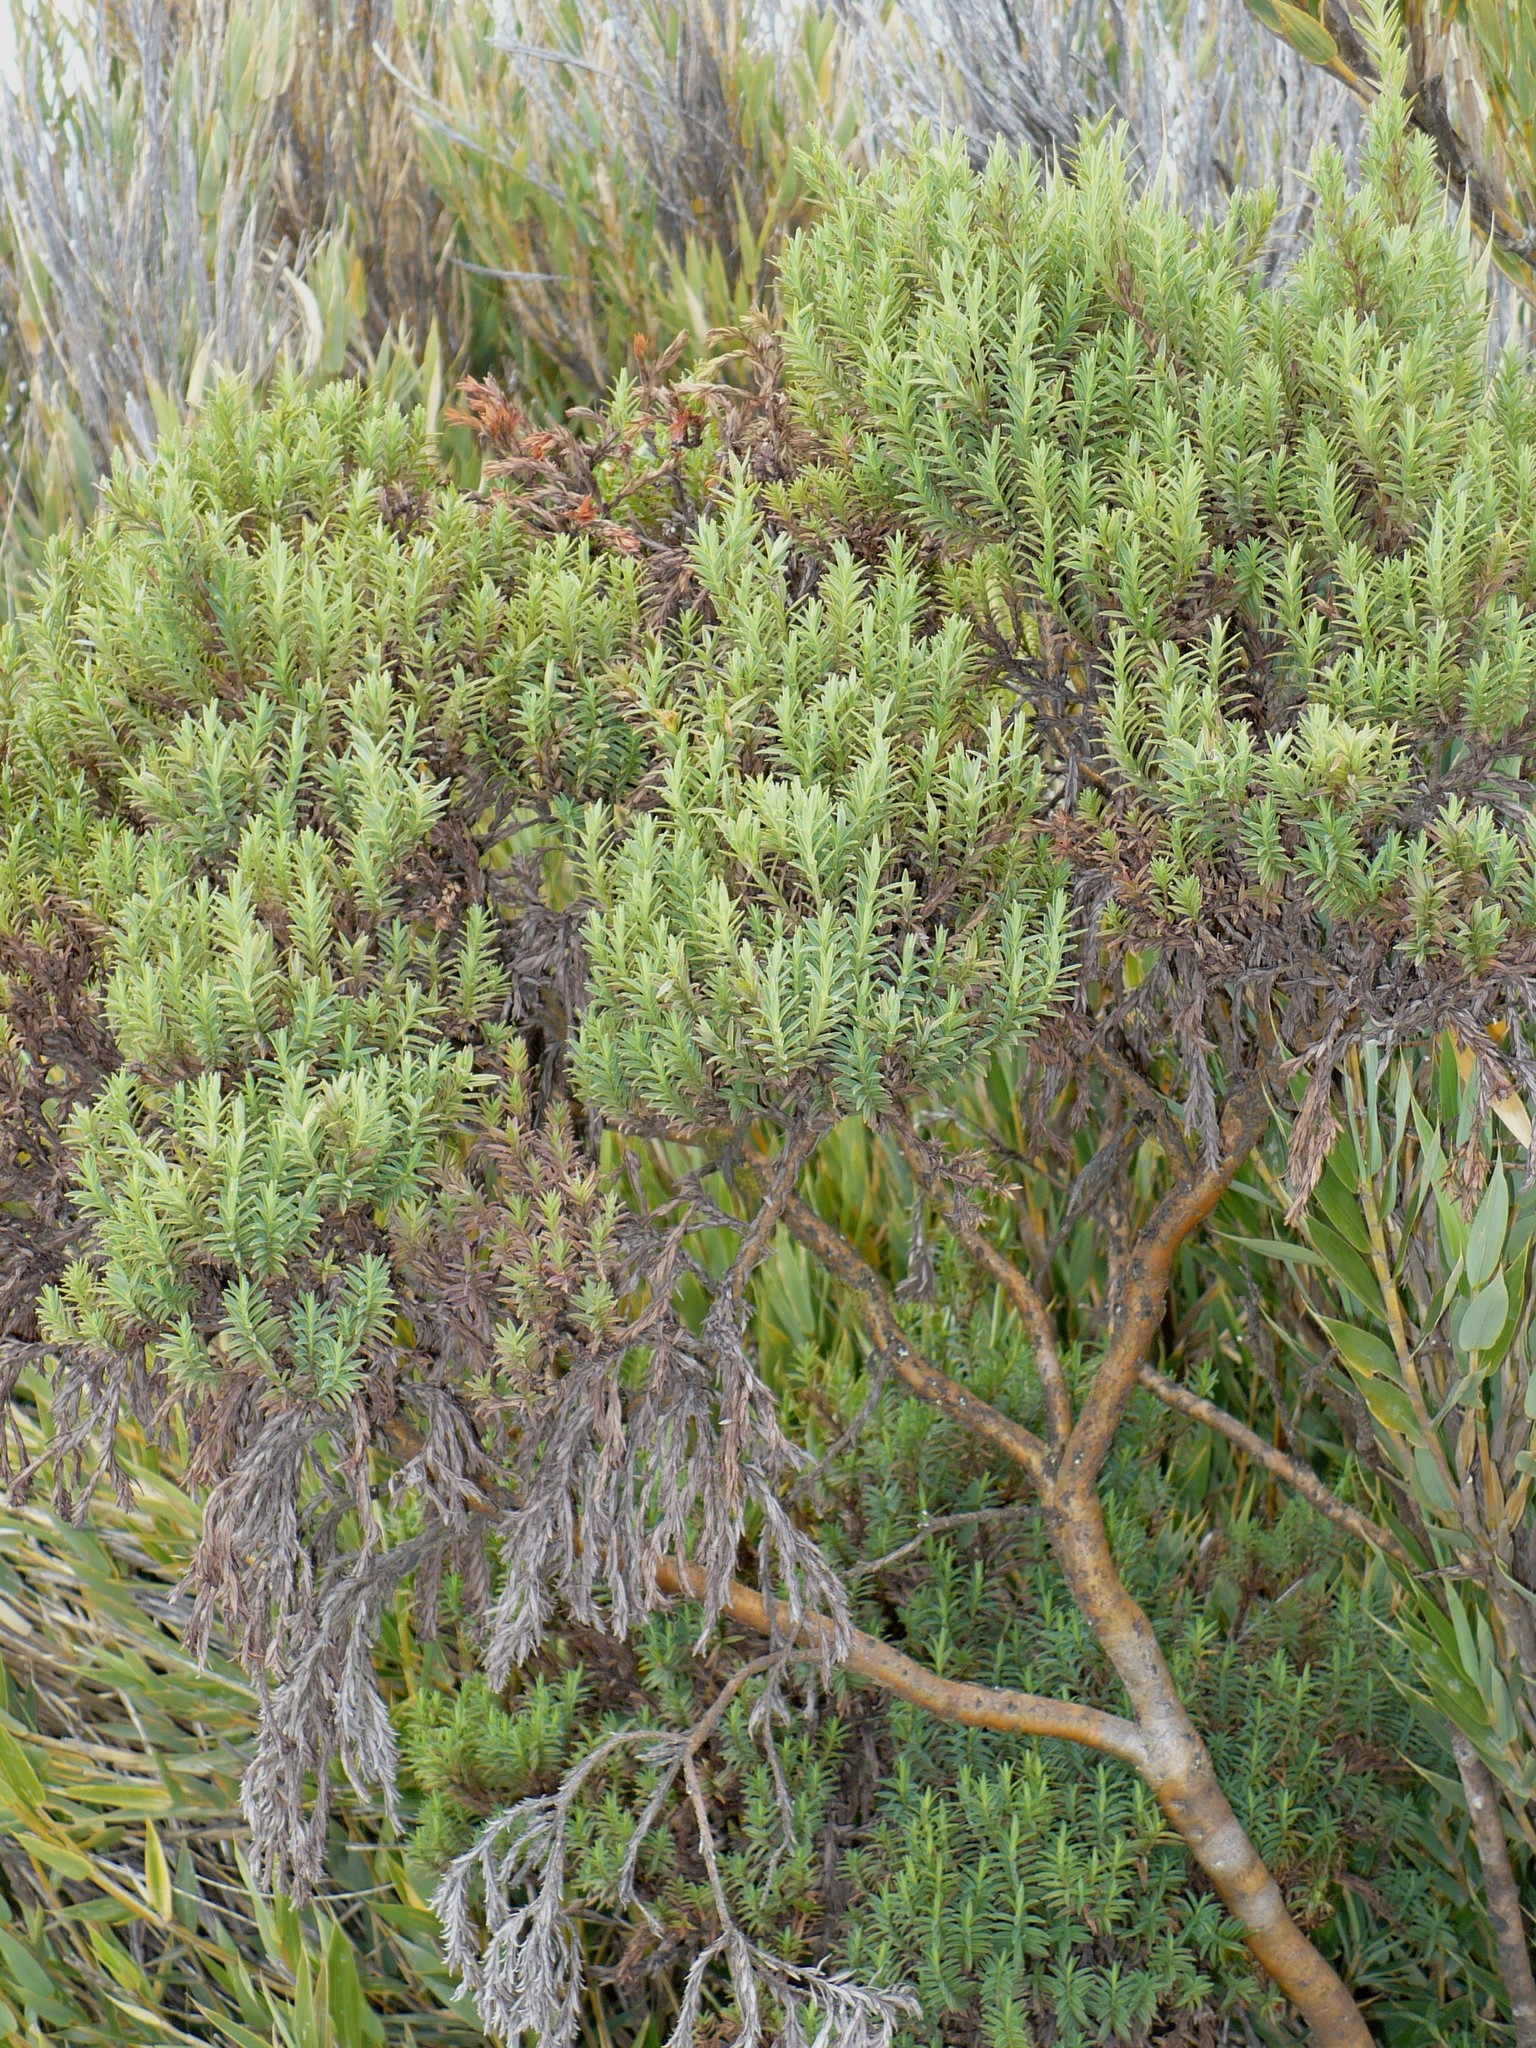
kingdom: Plantae
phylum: Tracheophyta
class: Magnoliopsida
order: Malpighiales
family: Hypericaceae
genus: Hypericum
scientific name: Hypericum irazuense
